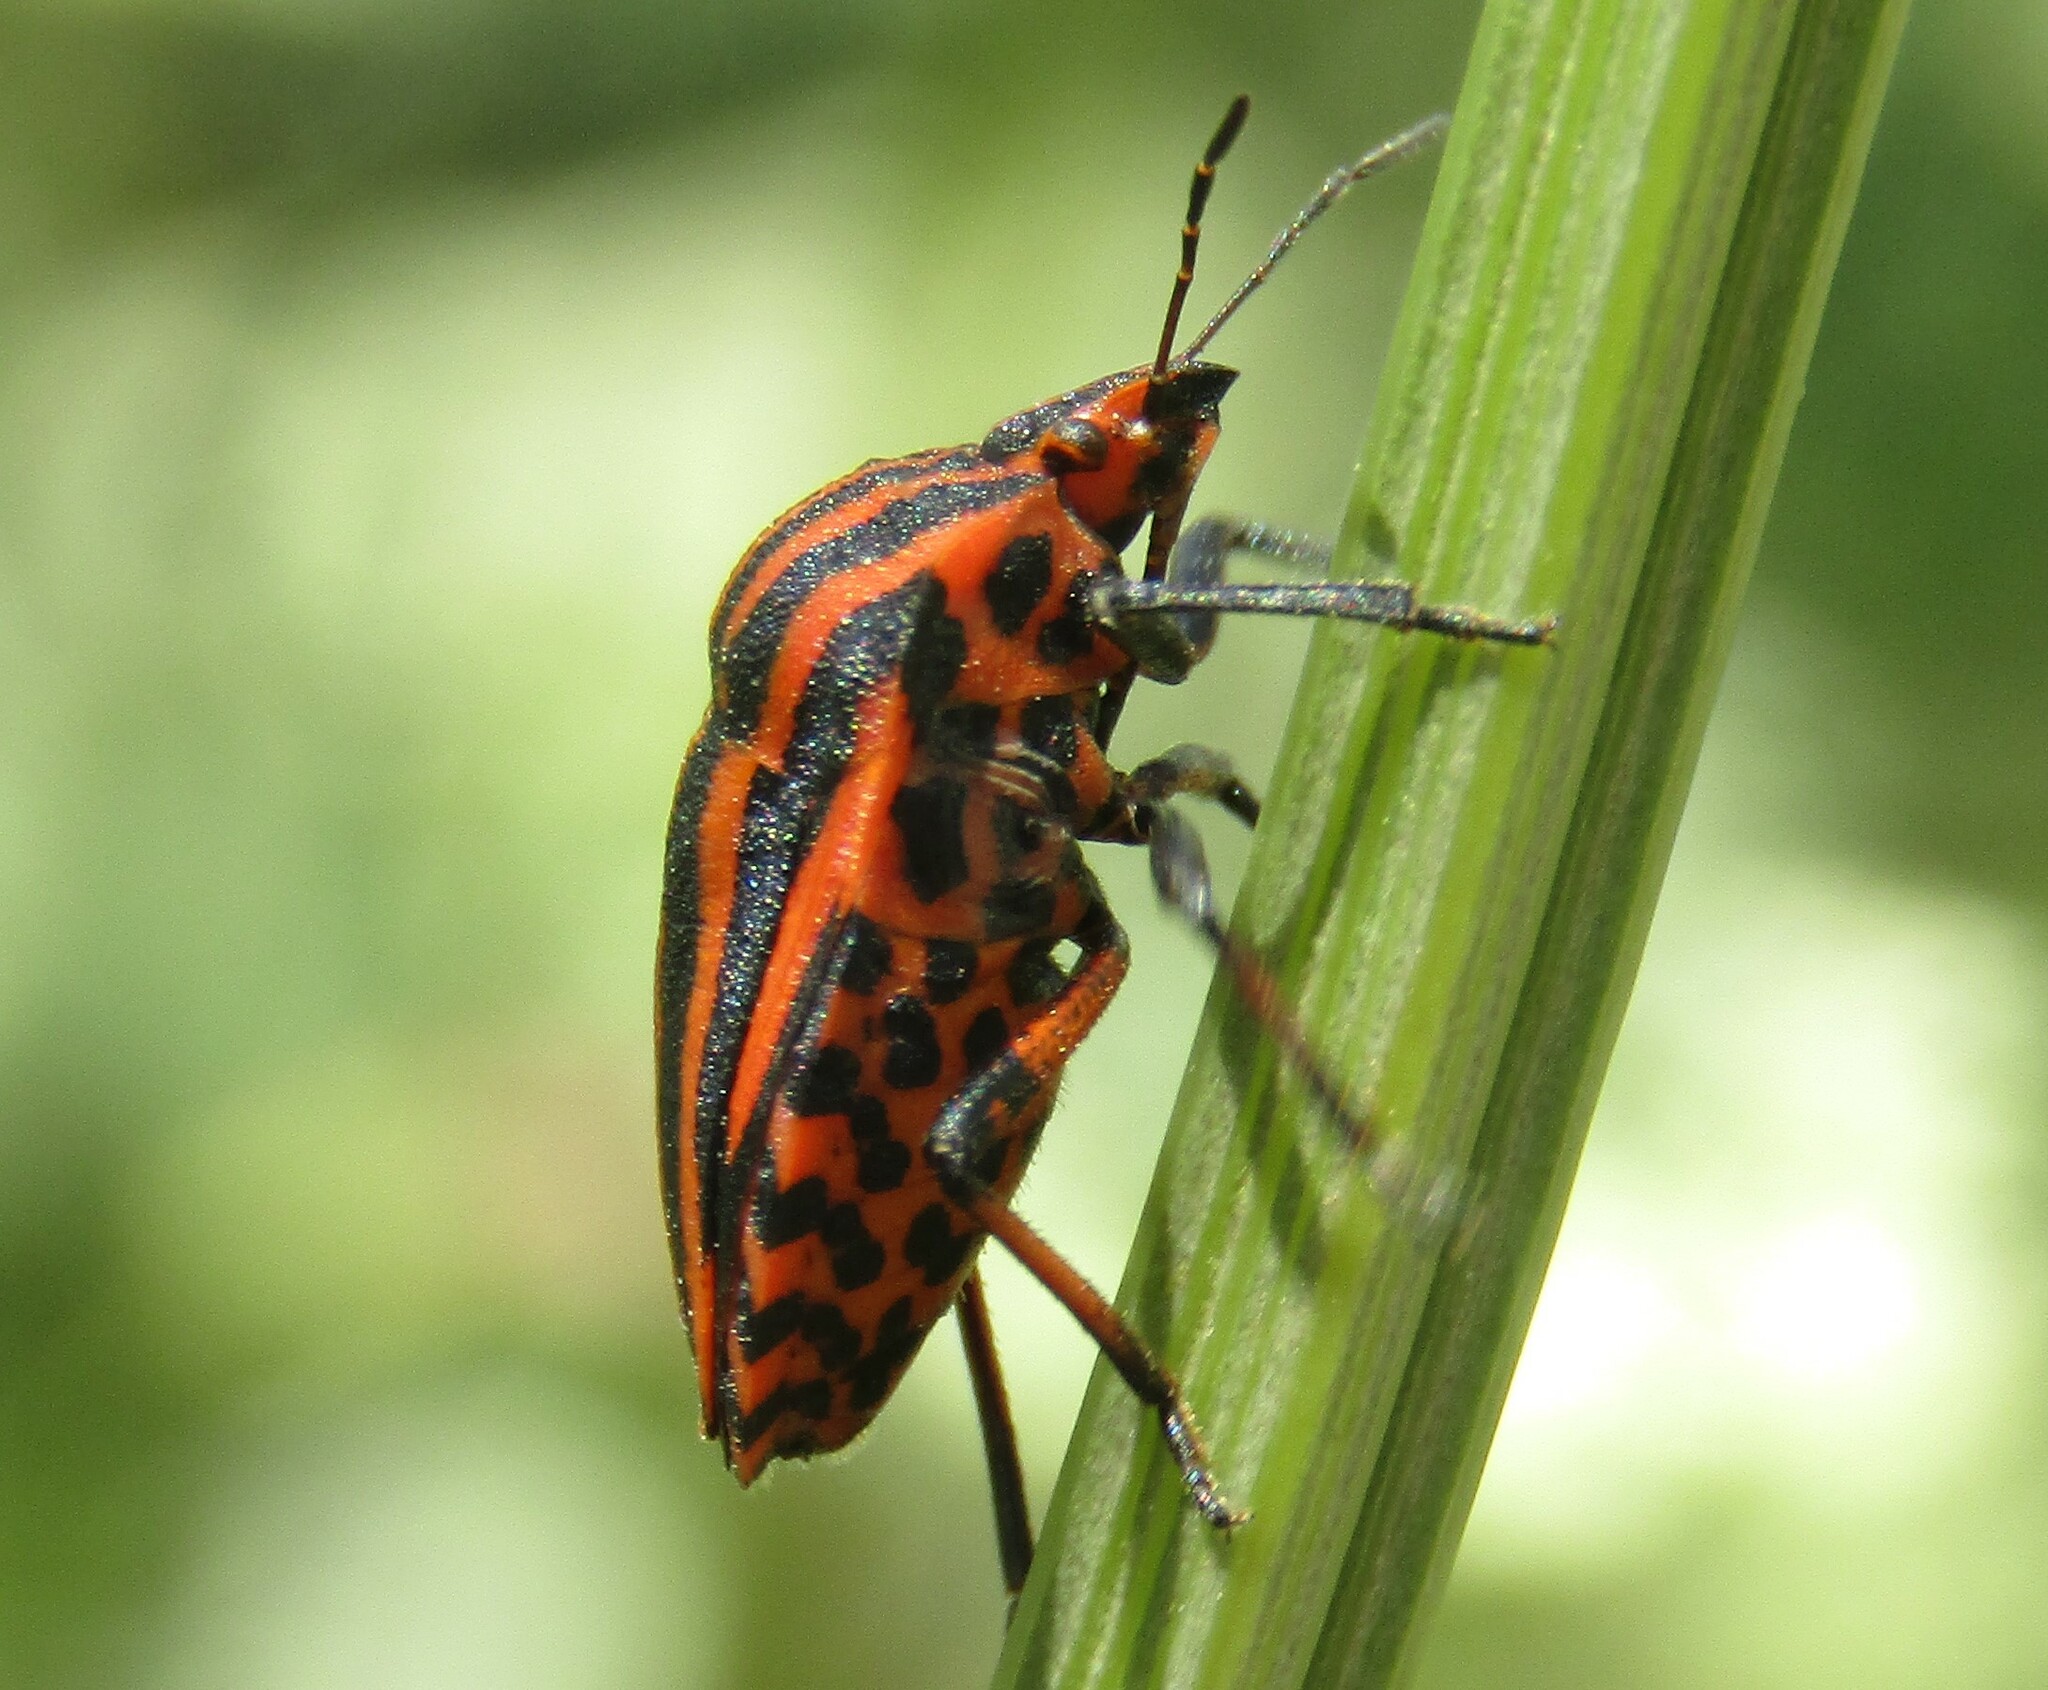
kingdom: Animalia
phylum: Arthropoda
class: Insecta
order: Hemiptera
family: Pentatomidae
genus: Graphosoma
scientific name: Graphosoma italicum
